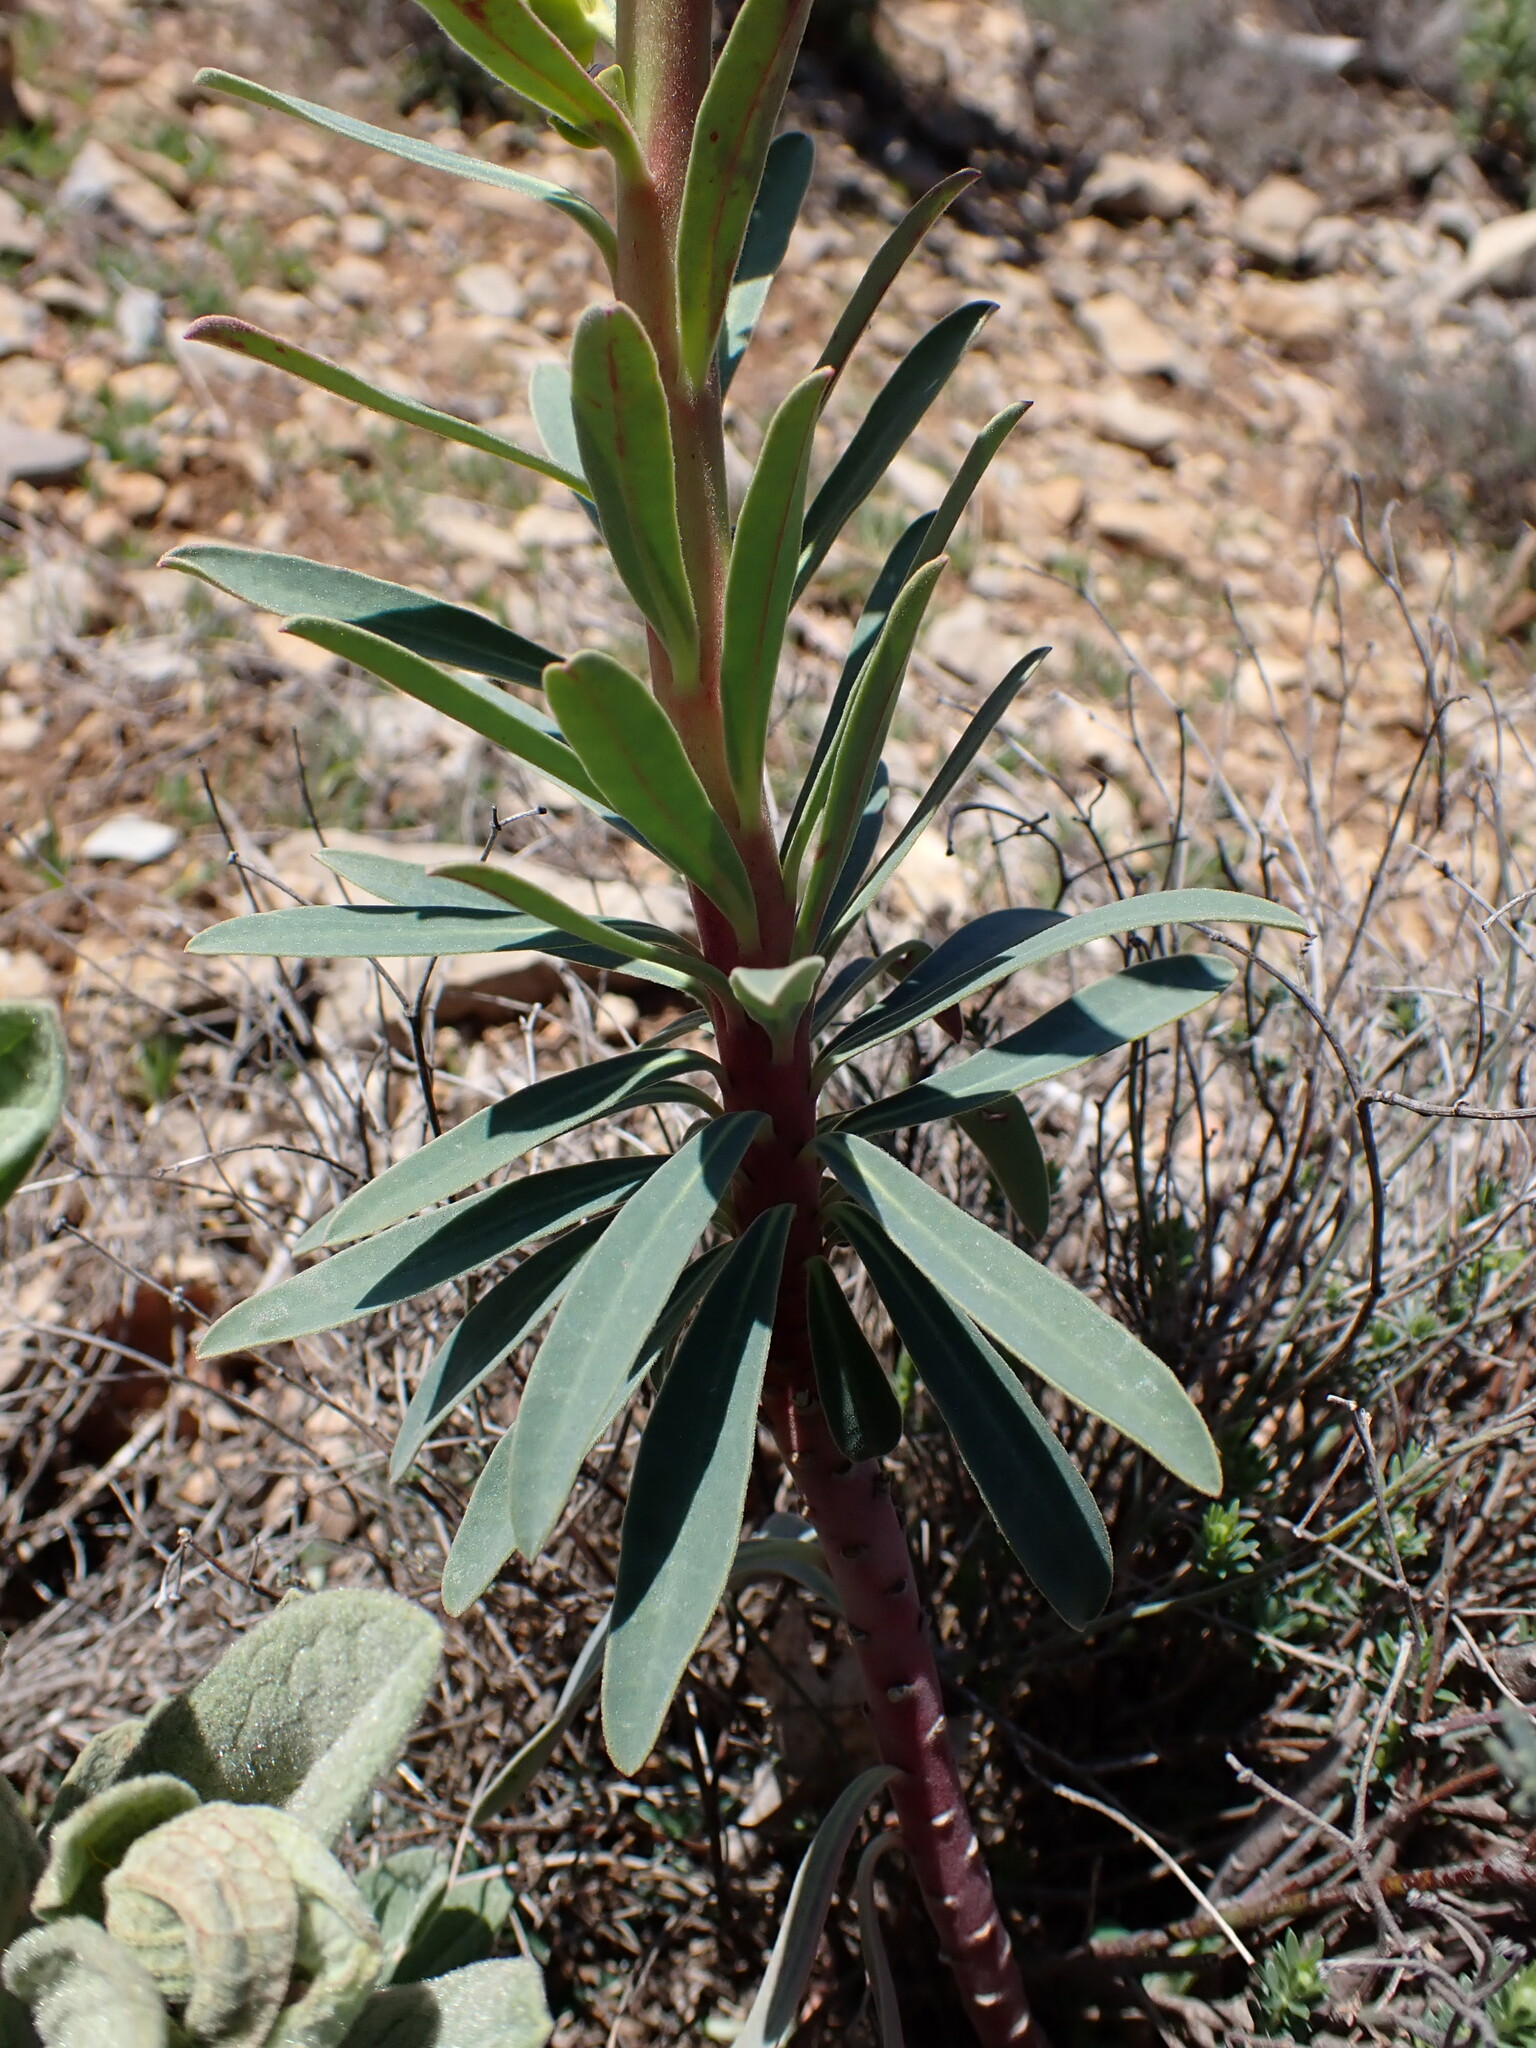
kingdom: Plantae
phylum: Tracheophyta
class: Magnoliopsida
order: Malpighiales
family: Euphorbiaceae
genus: Euphorbia
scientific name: Euphorbia characias
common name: Mediterranean spurge
